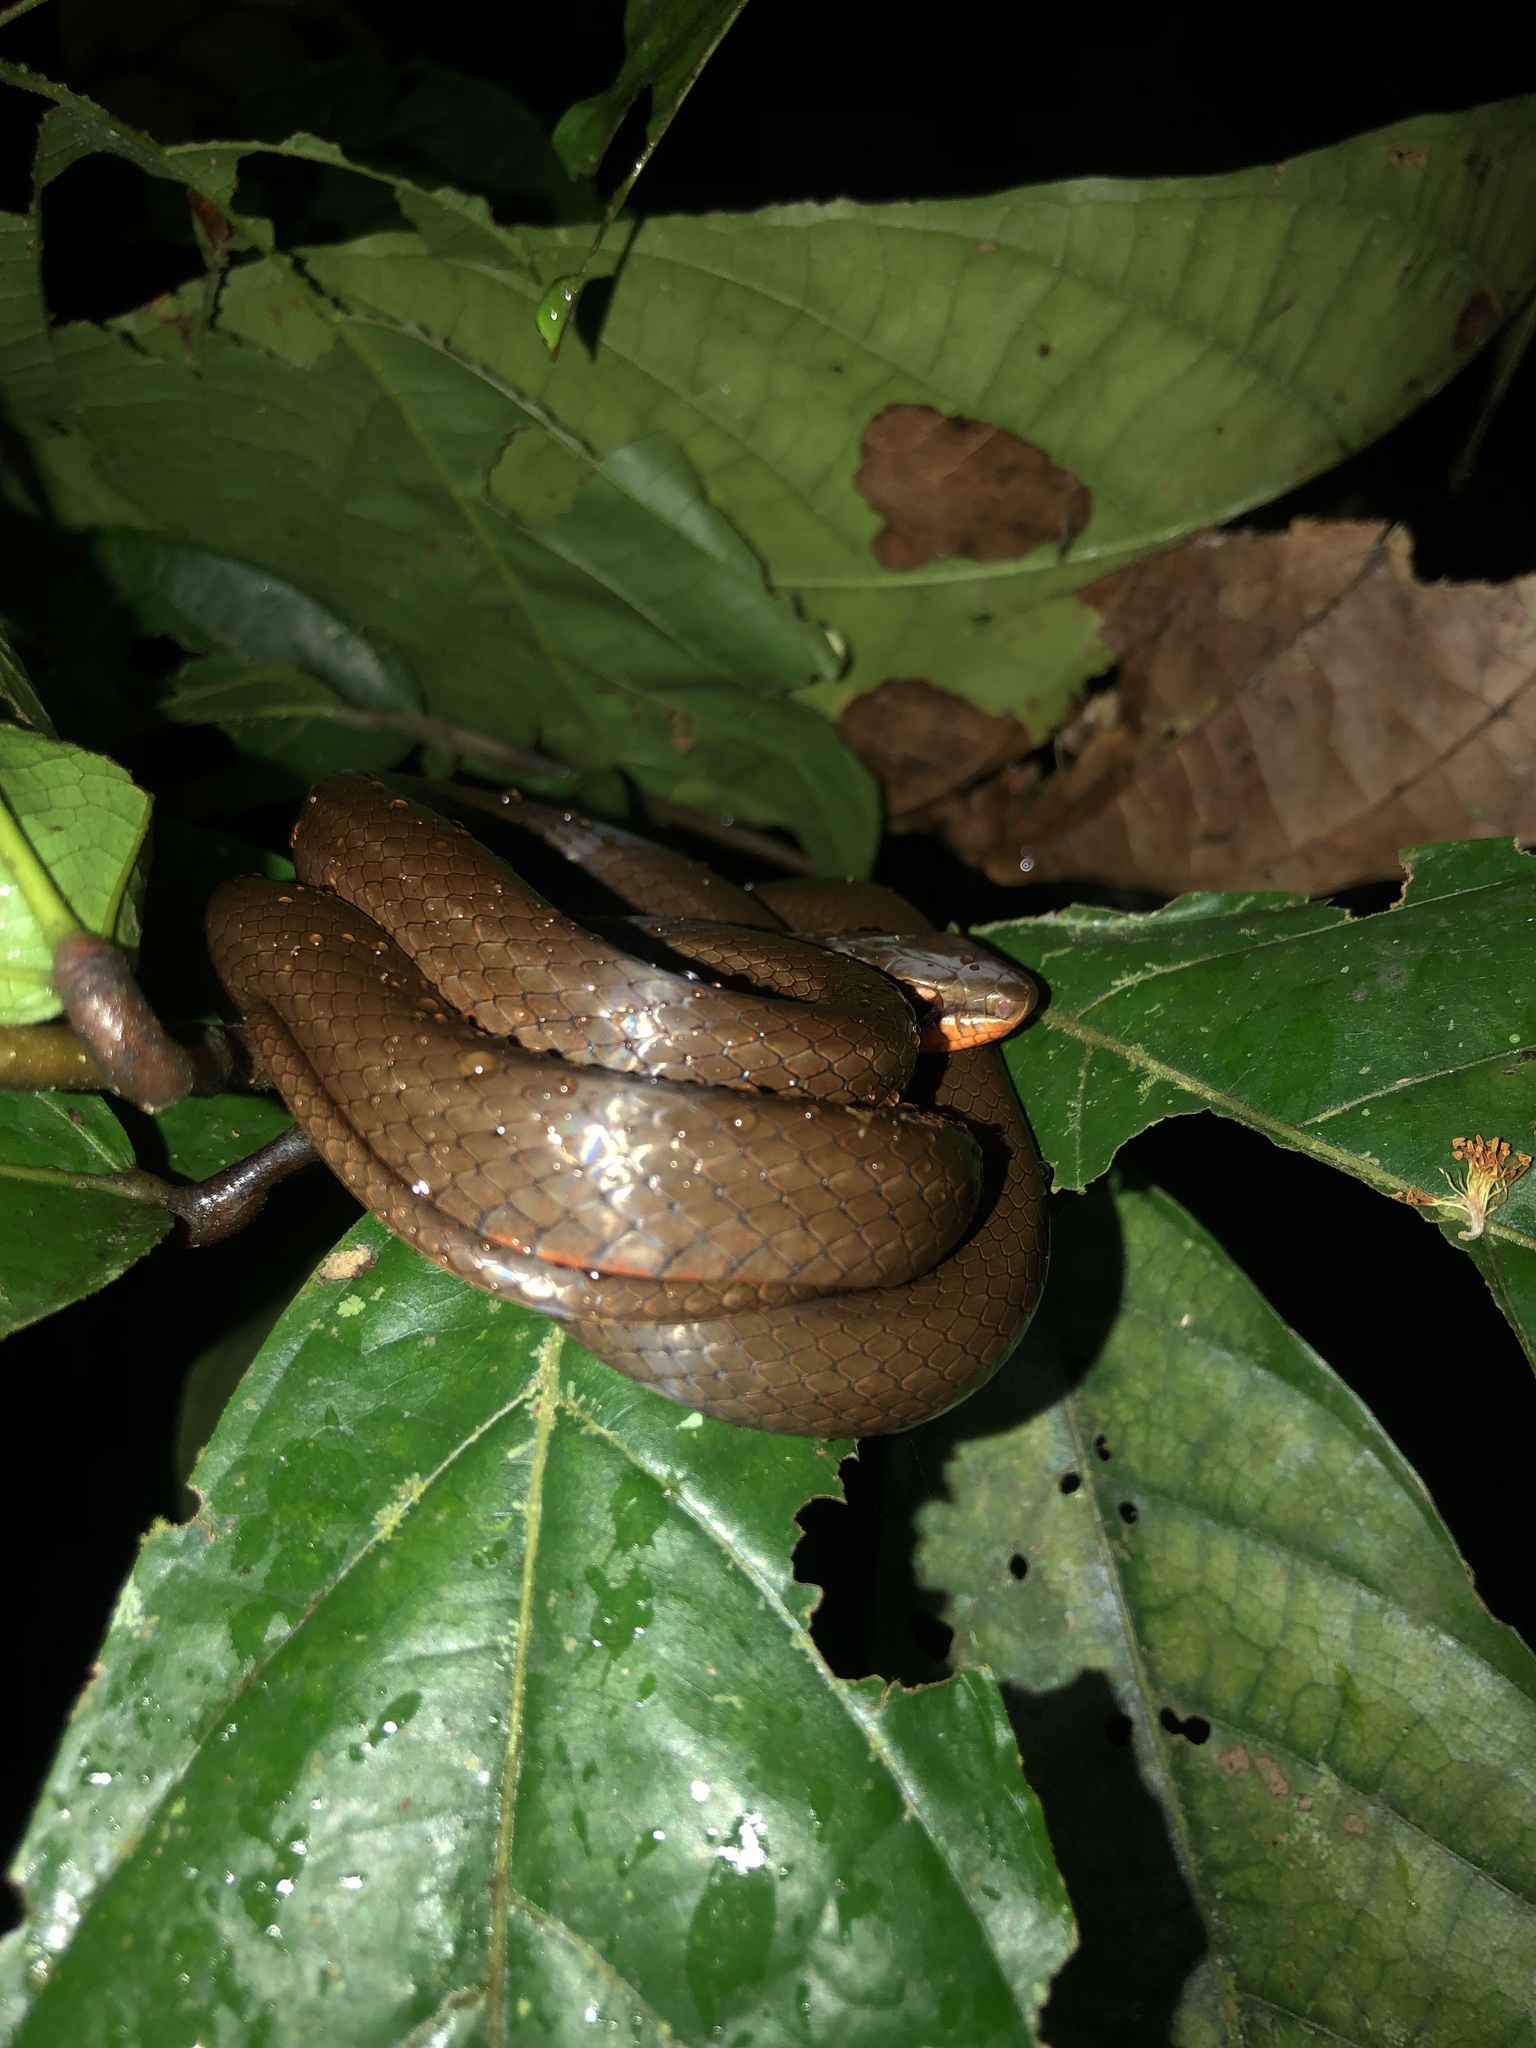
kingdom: Animalia
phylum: Chordata
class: Squamata
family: Colubridae
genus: Mastigodryas
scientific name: Mastigodryas alternatus
